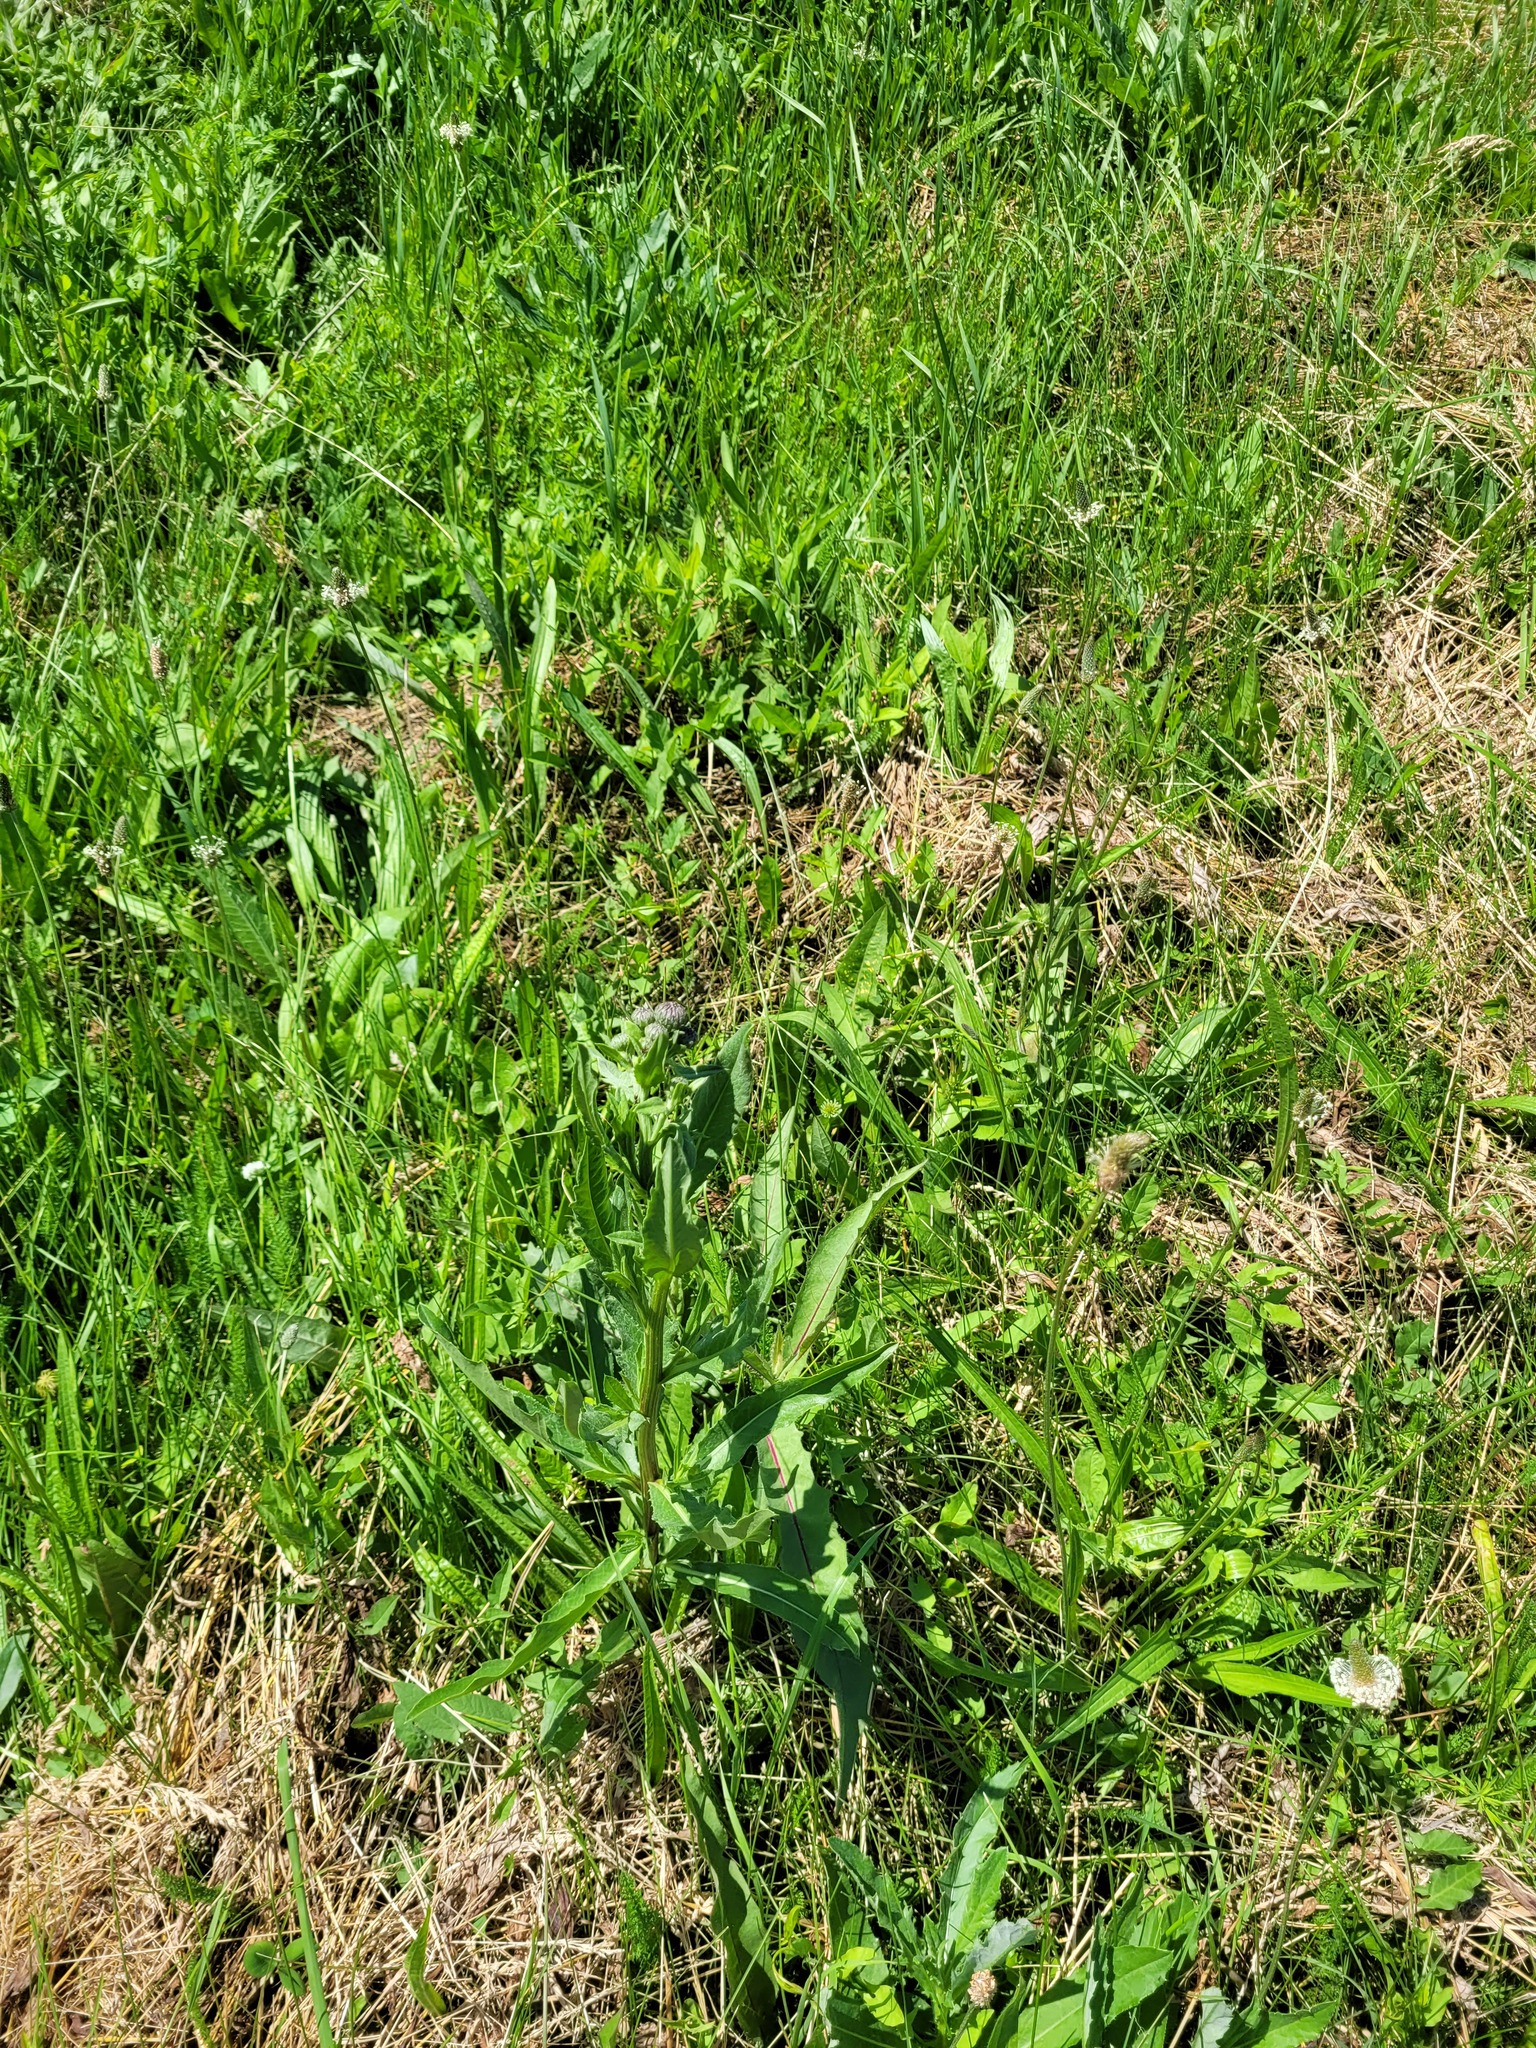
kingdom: Plantae
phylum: Tracheophyta
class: Magnoliopsida
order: Asterales
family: Asteraceae
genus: Cirsium
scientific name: Cirsium arvense
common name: Creeping thistle
